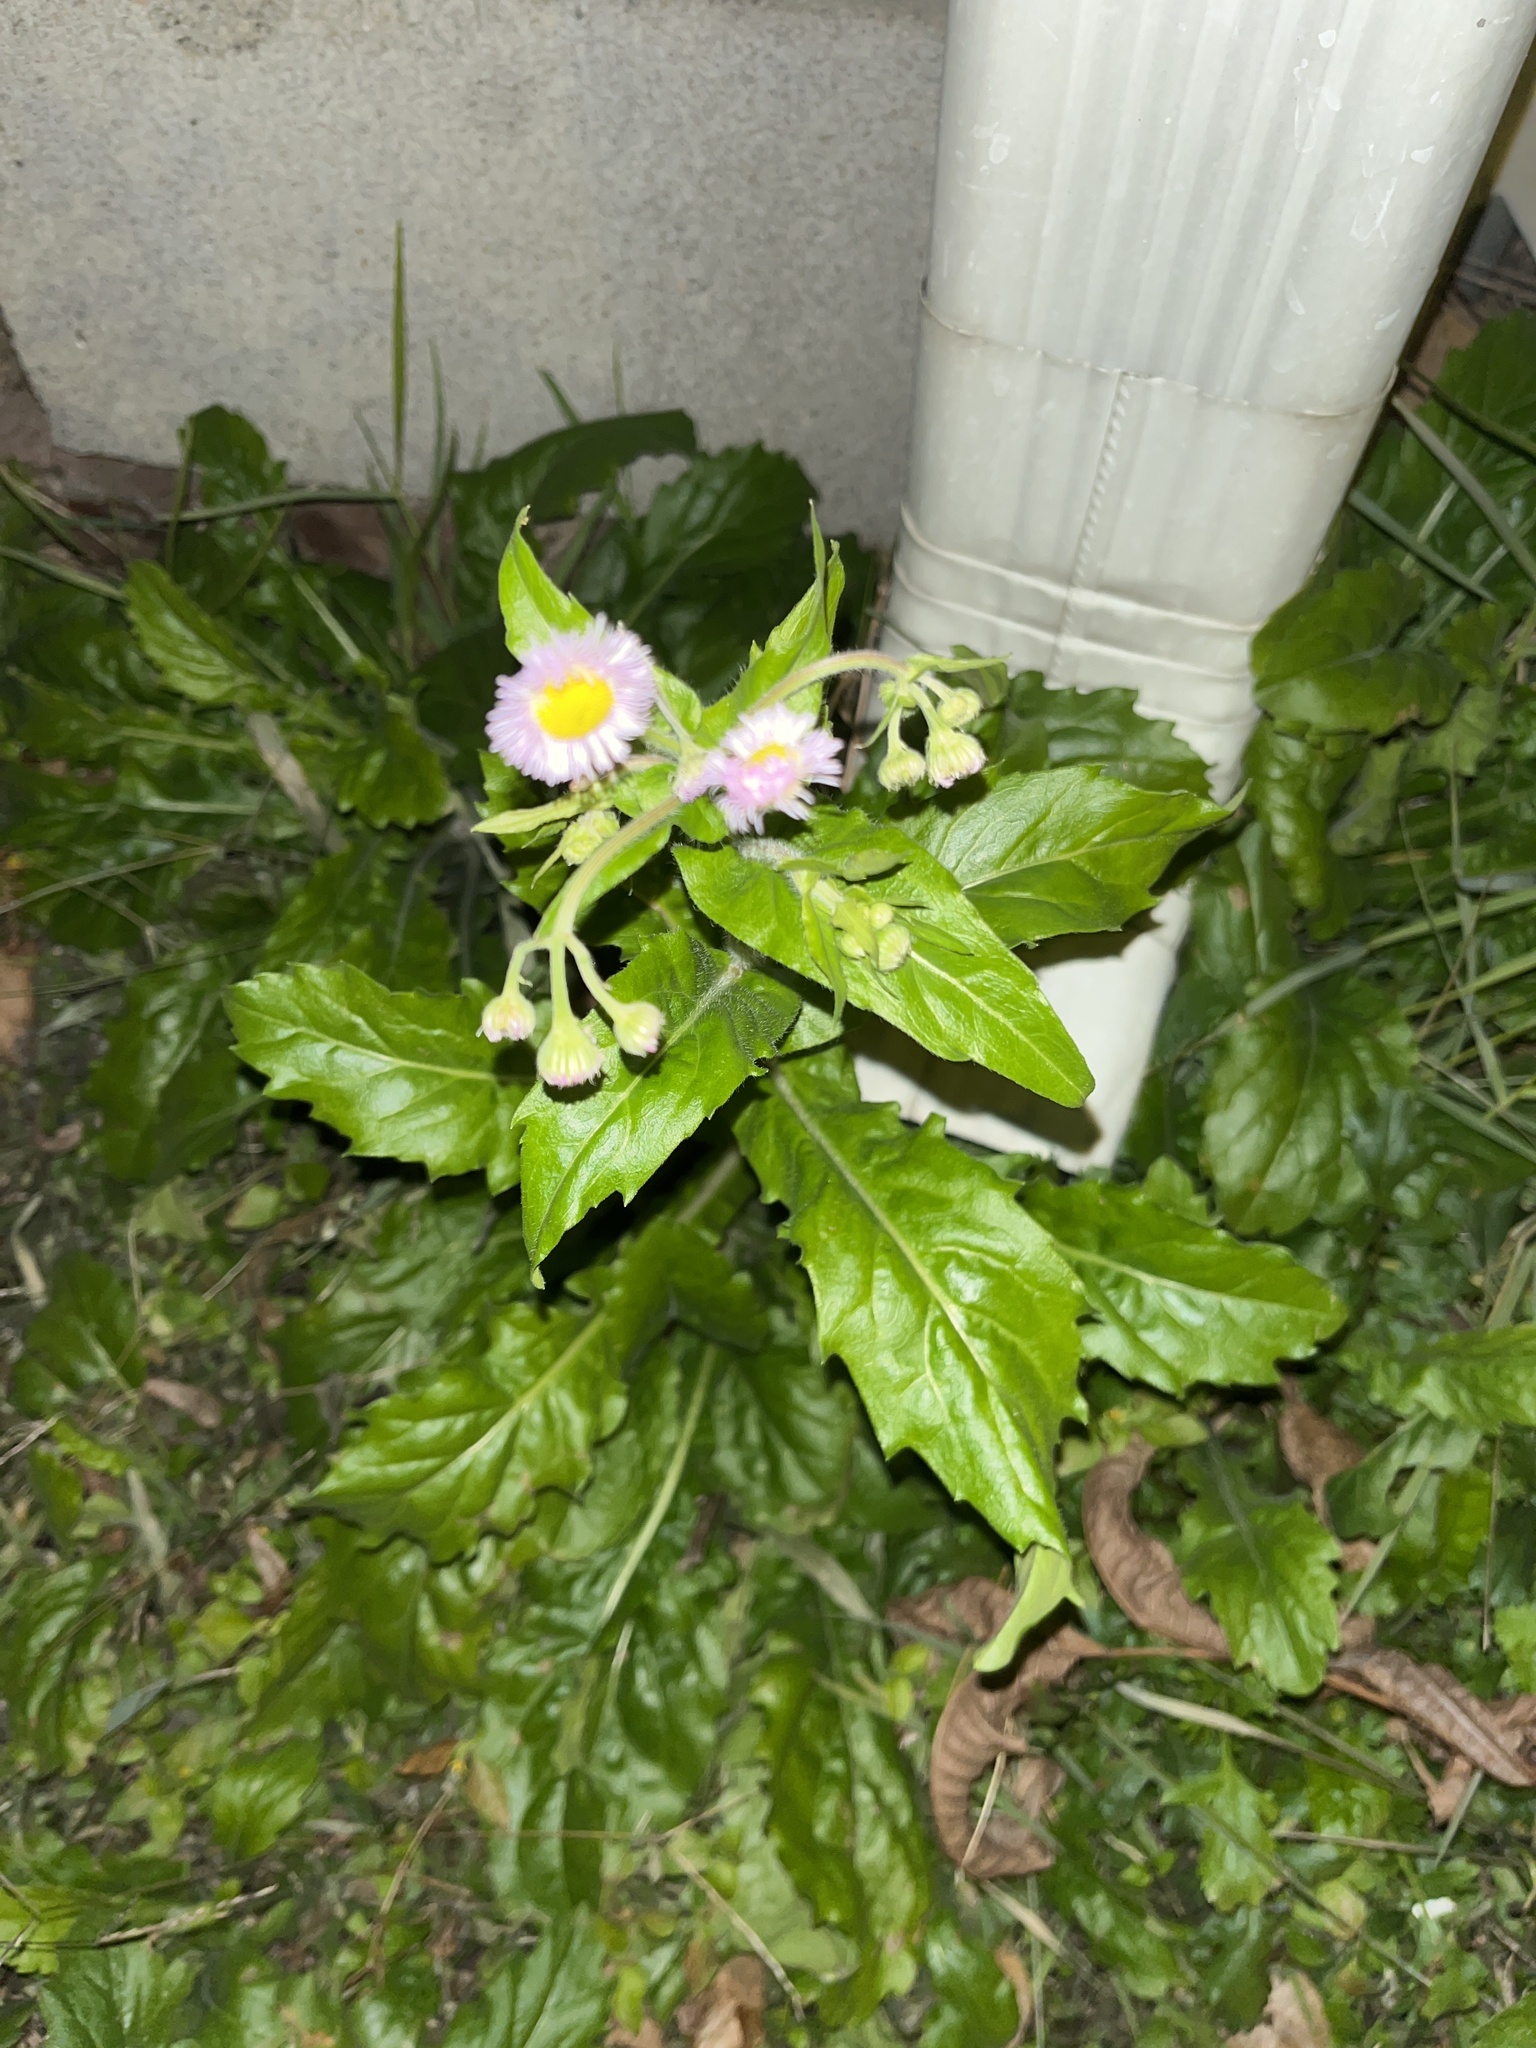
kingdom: Plantae
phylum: Tracheophyta
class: Magnoliopsida
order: Asterales
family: Asteraceae
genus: Erigeron
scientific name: Erigeron philadelphicus
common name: Robin's-plantain
